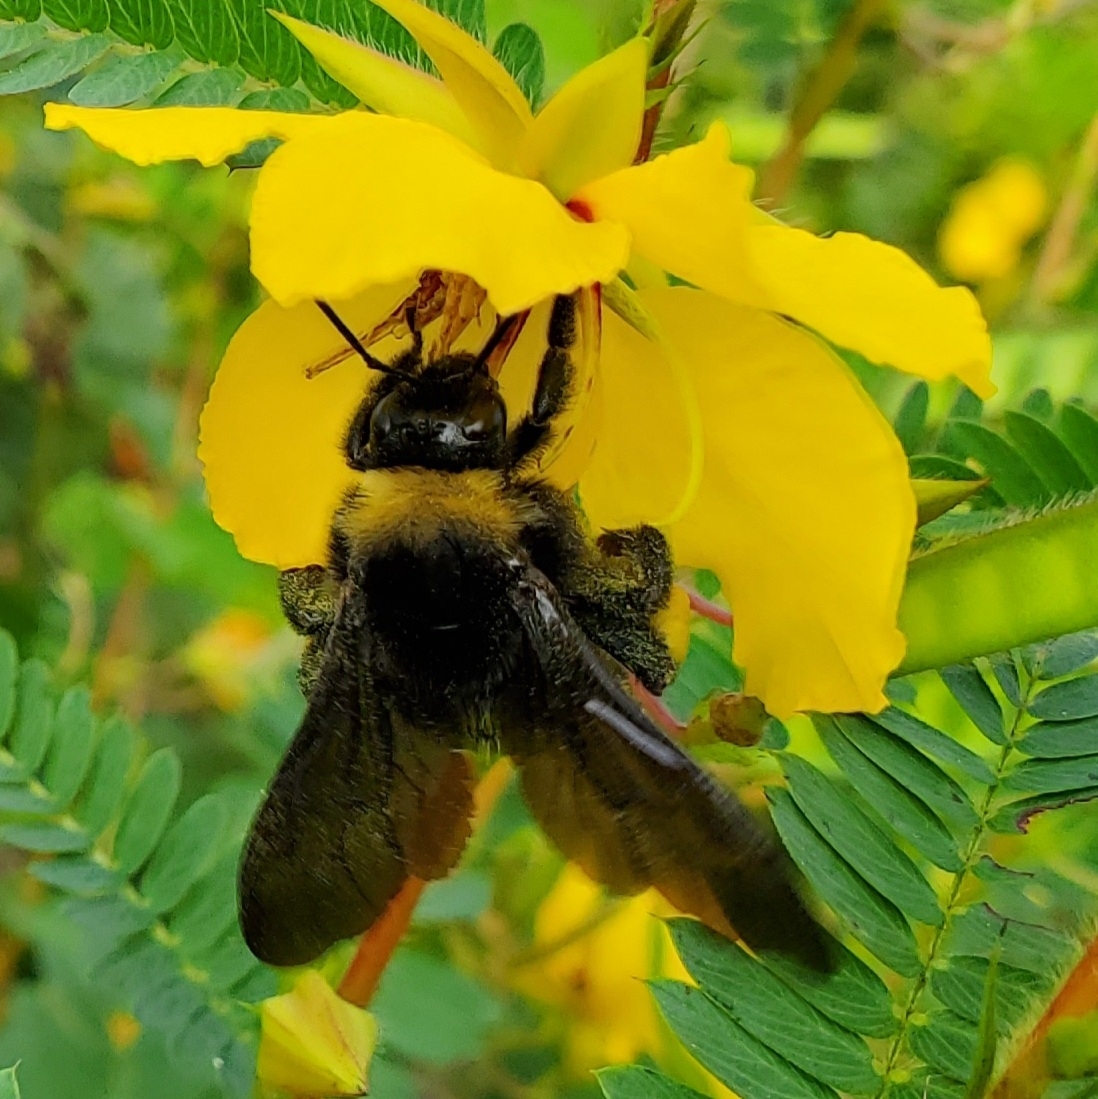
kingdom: Animalia
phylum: Arthropoda
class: Insecta
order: Hymenoptera
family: Apidae
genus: Bombus
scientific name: Bombus pensylvanicus
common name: Bumble bee
